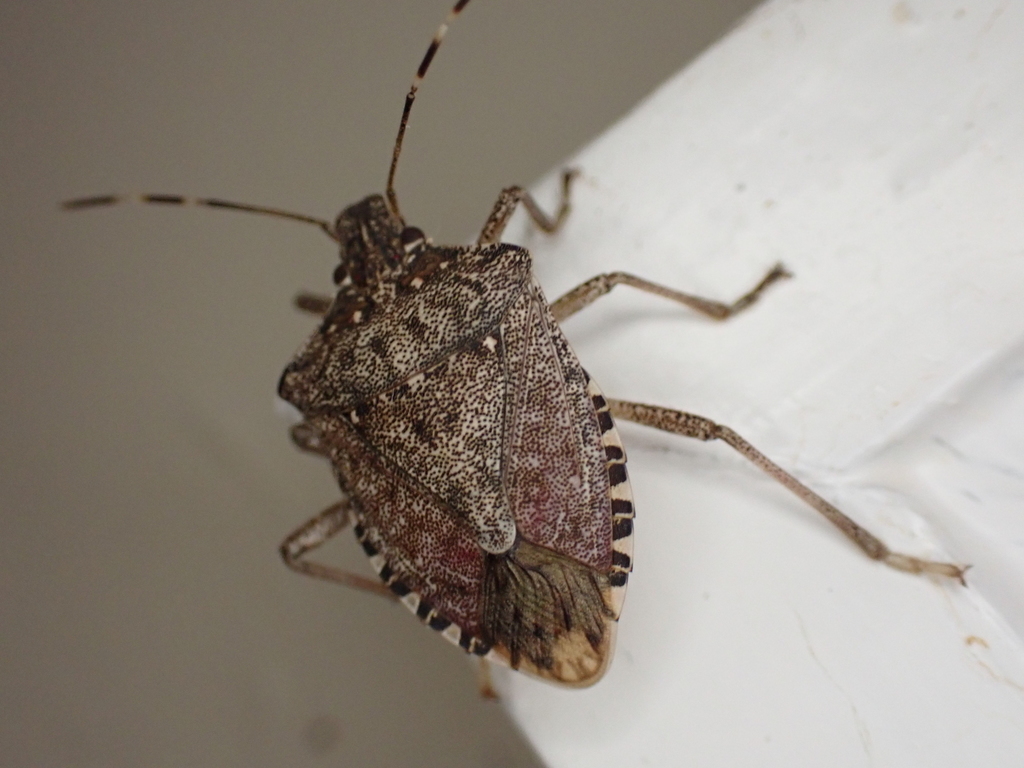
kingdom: Animalia
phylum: Arthropoda
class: Insecta
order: Hemiptera
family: Pentatomidae
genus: Halyomorpha
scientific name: Halyomorpha halys
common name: Brown marmorated stink bug
